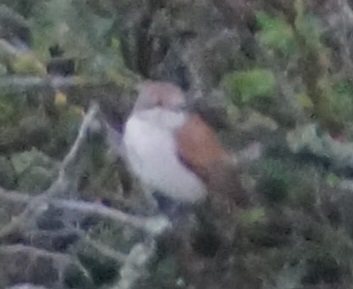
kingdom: Animalia
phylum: Chordata
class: Aves
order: Passeriformes
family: Laniidae
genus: Lanius
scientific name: Lanius collurio
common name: Red-backed shrike
